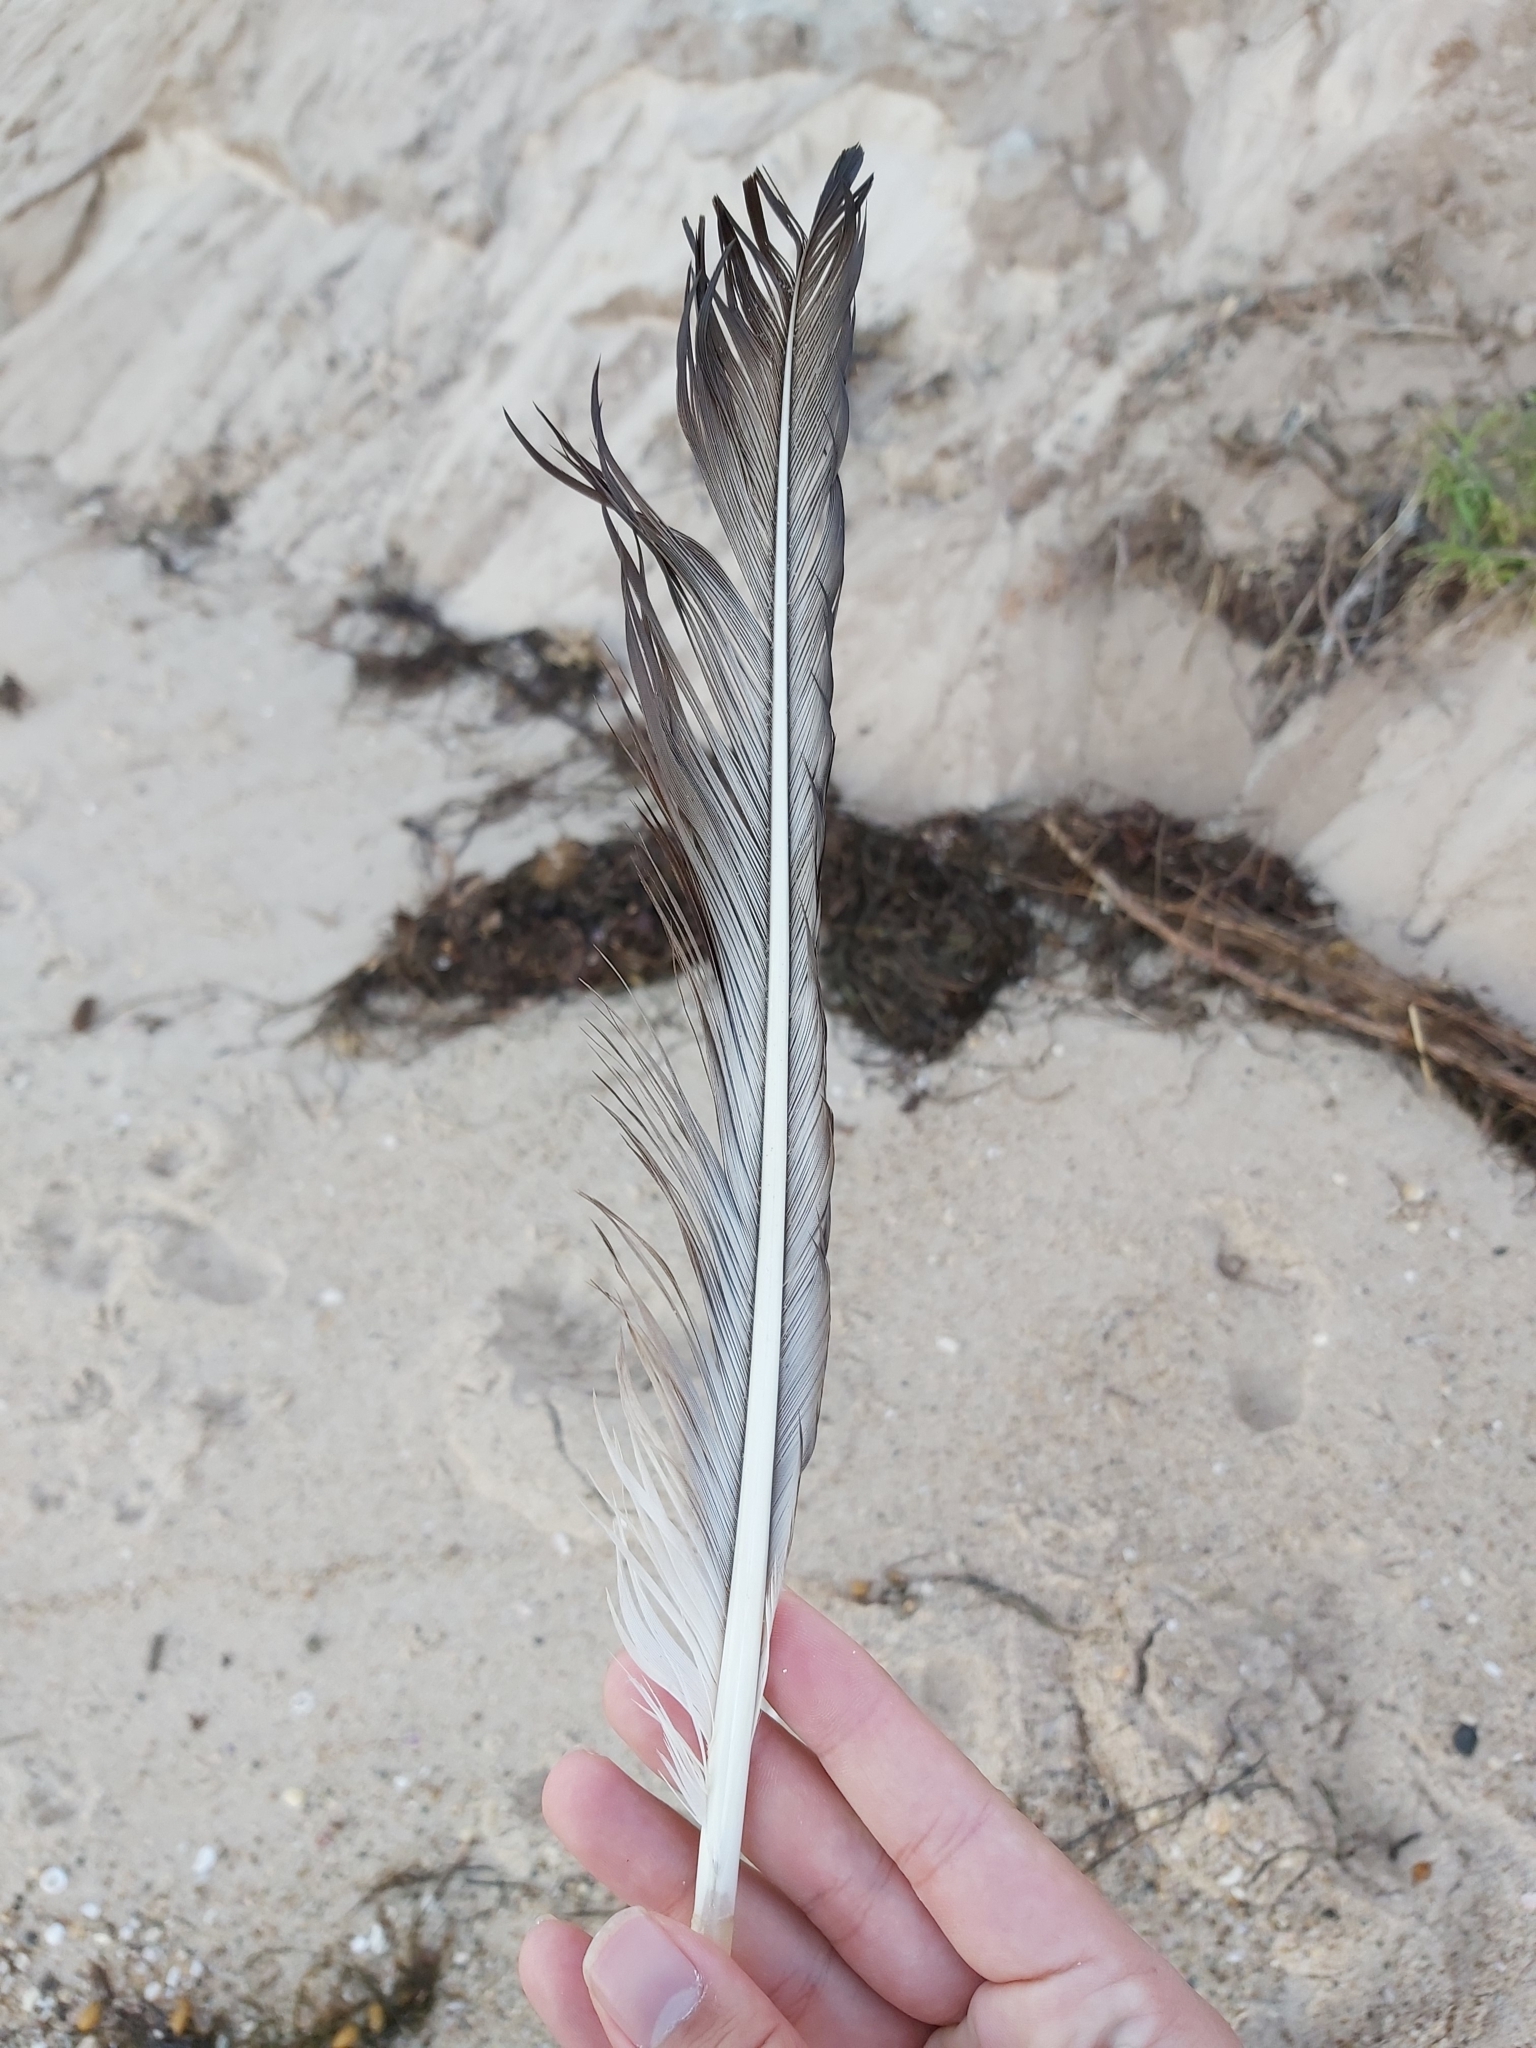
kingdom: Animalia
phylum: Chordata
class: Aves
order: Pelecaniformes
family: Pelecanidae
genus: Pelecanus
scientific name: Pelecanus conspicillatus
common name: Australian pelican
